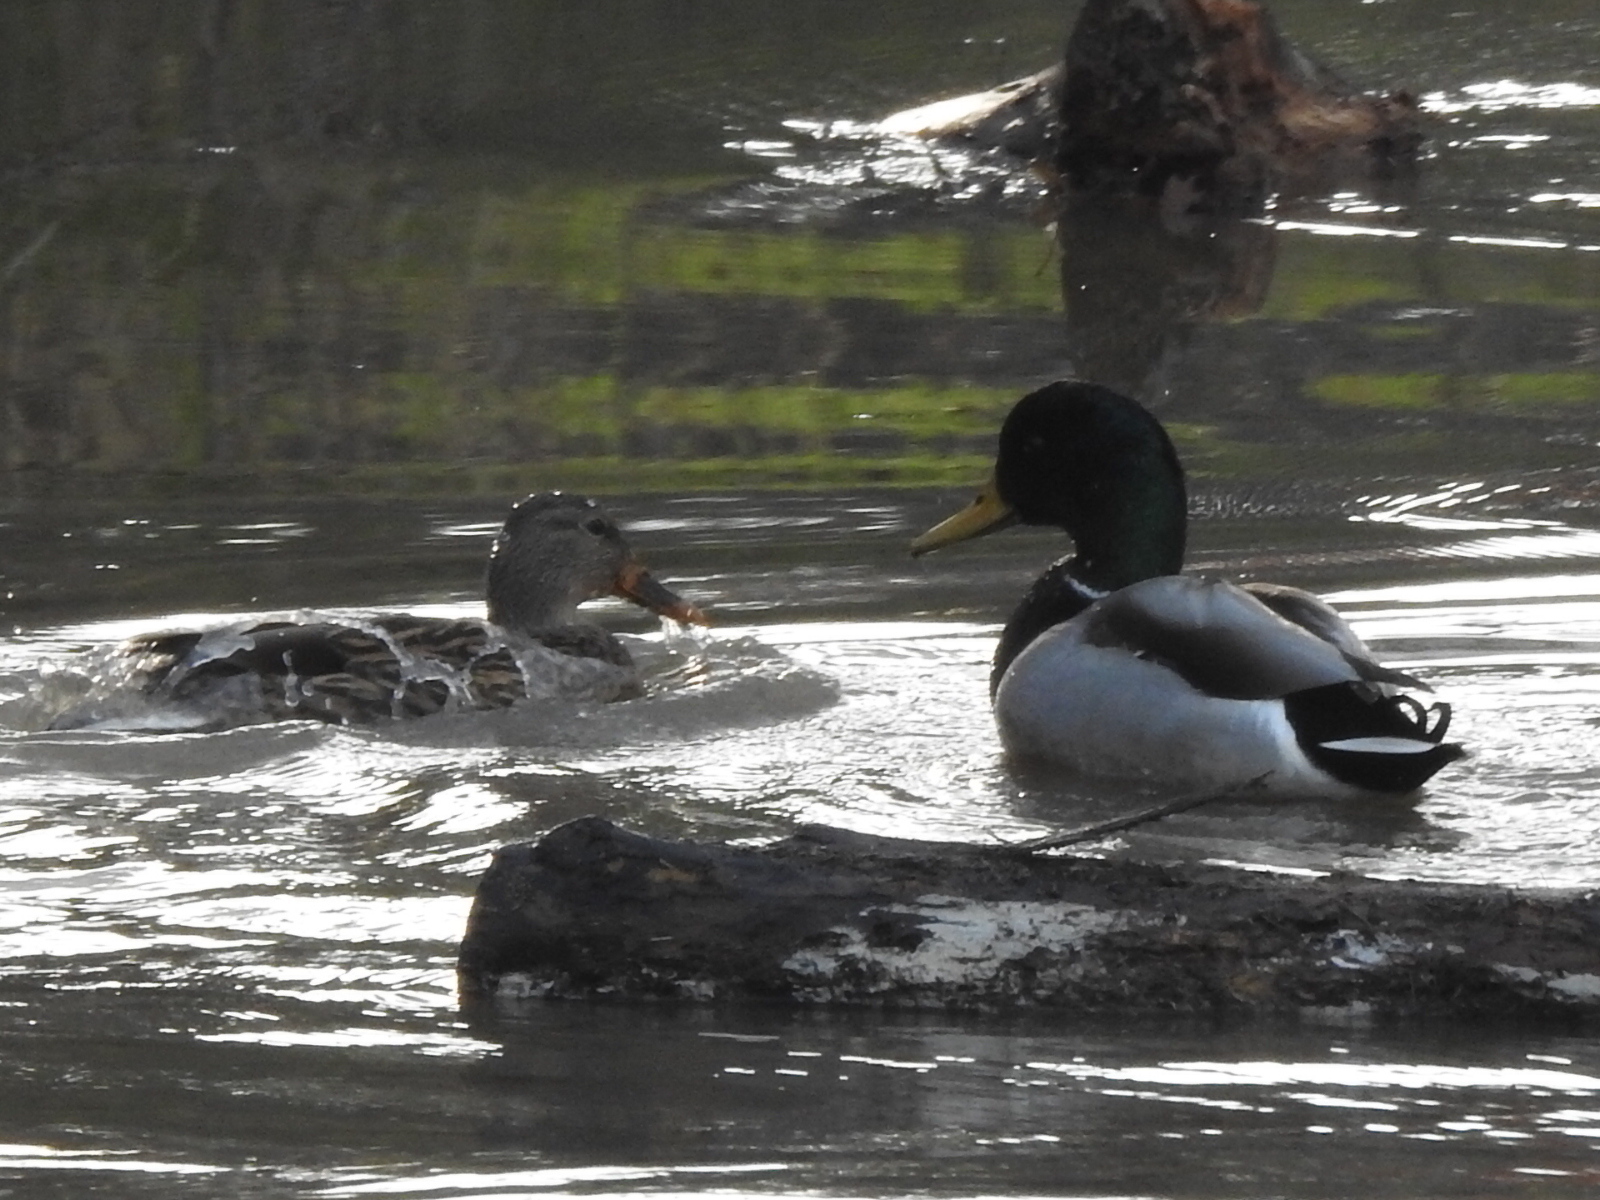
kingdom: Animalia
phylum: Chordata
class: Aves
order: Anseriformes
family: Anatidae
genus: Anas
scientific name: Anas platyrhynchos
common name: Mallard
